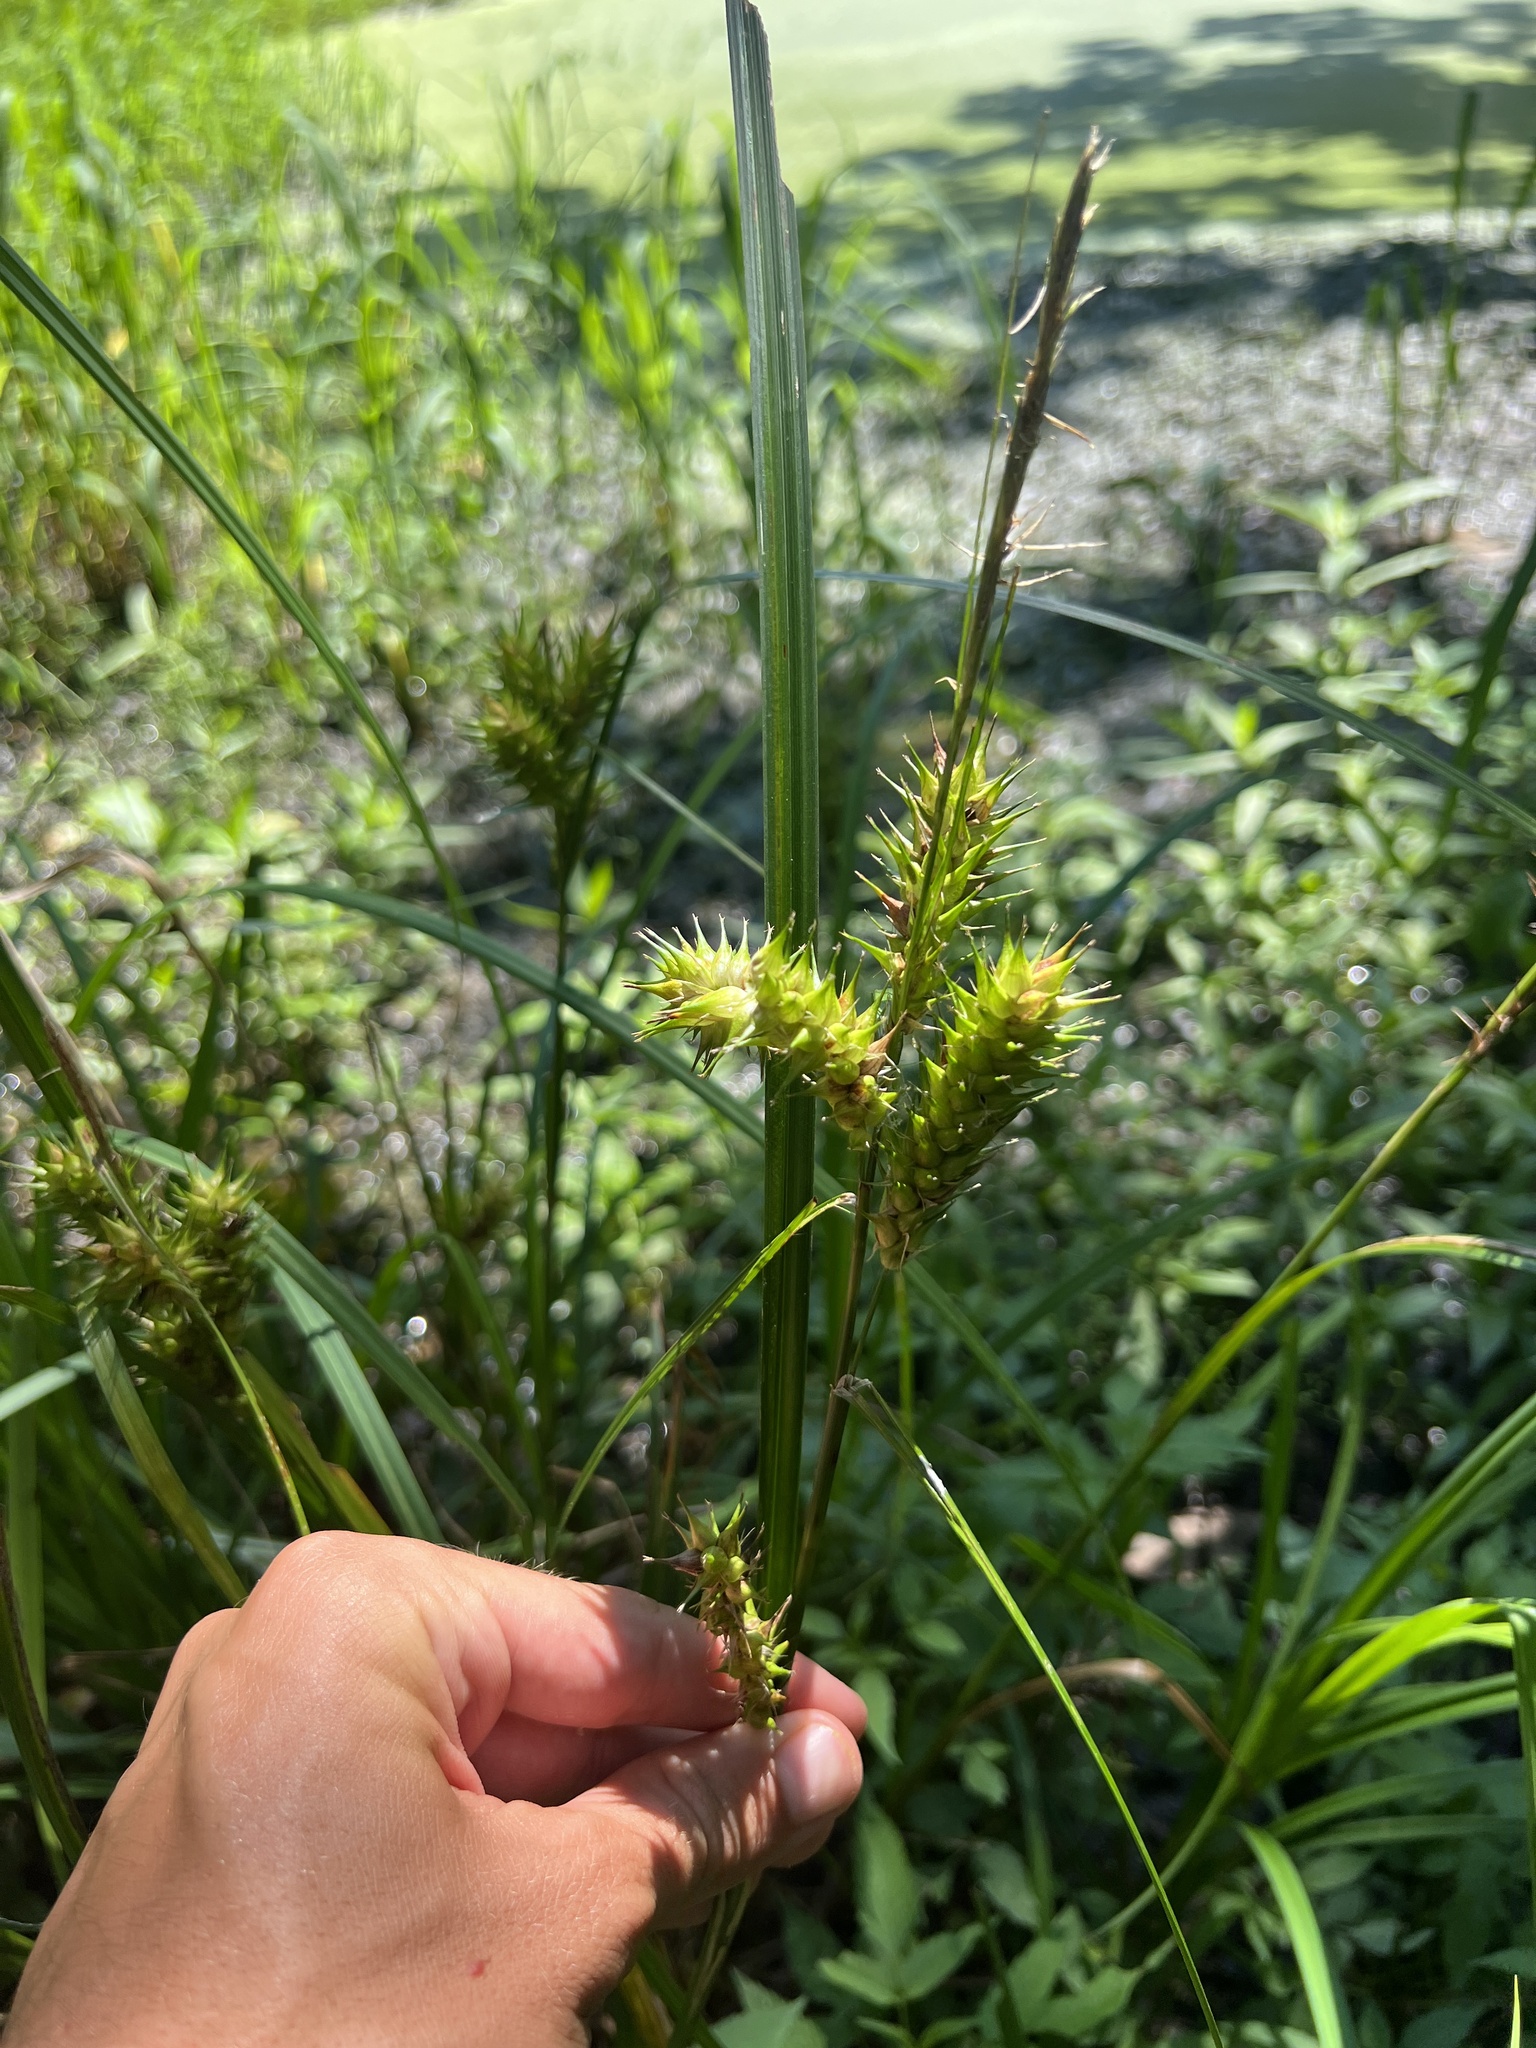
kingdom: Plantae
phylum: Tracheophyta
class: Liliopsida
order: Poales
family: Cyperaceae
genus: Carex
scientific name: Carex lupulina
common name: Hop sedge
